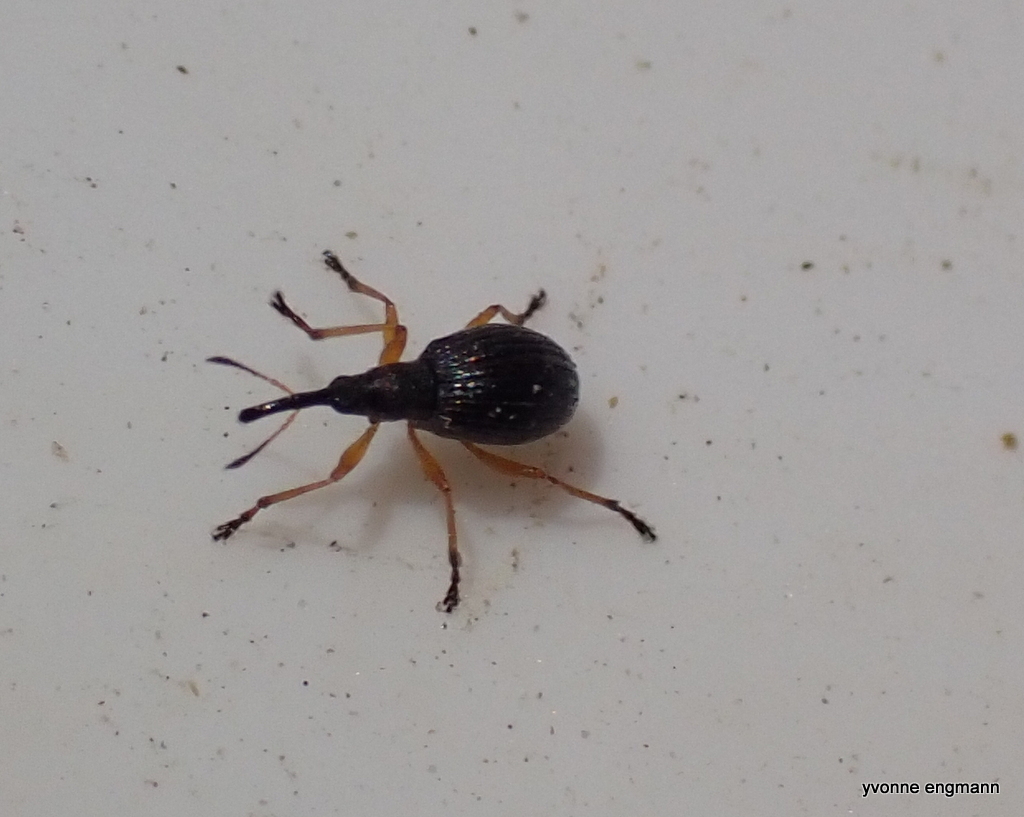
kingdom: Animalia
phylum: Arthropoda
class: Insecta
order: Coleoptera
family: Apionidae
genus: Protapion
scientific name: Protapion fulvipes
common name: White clover seed weevil
